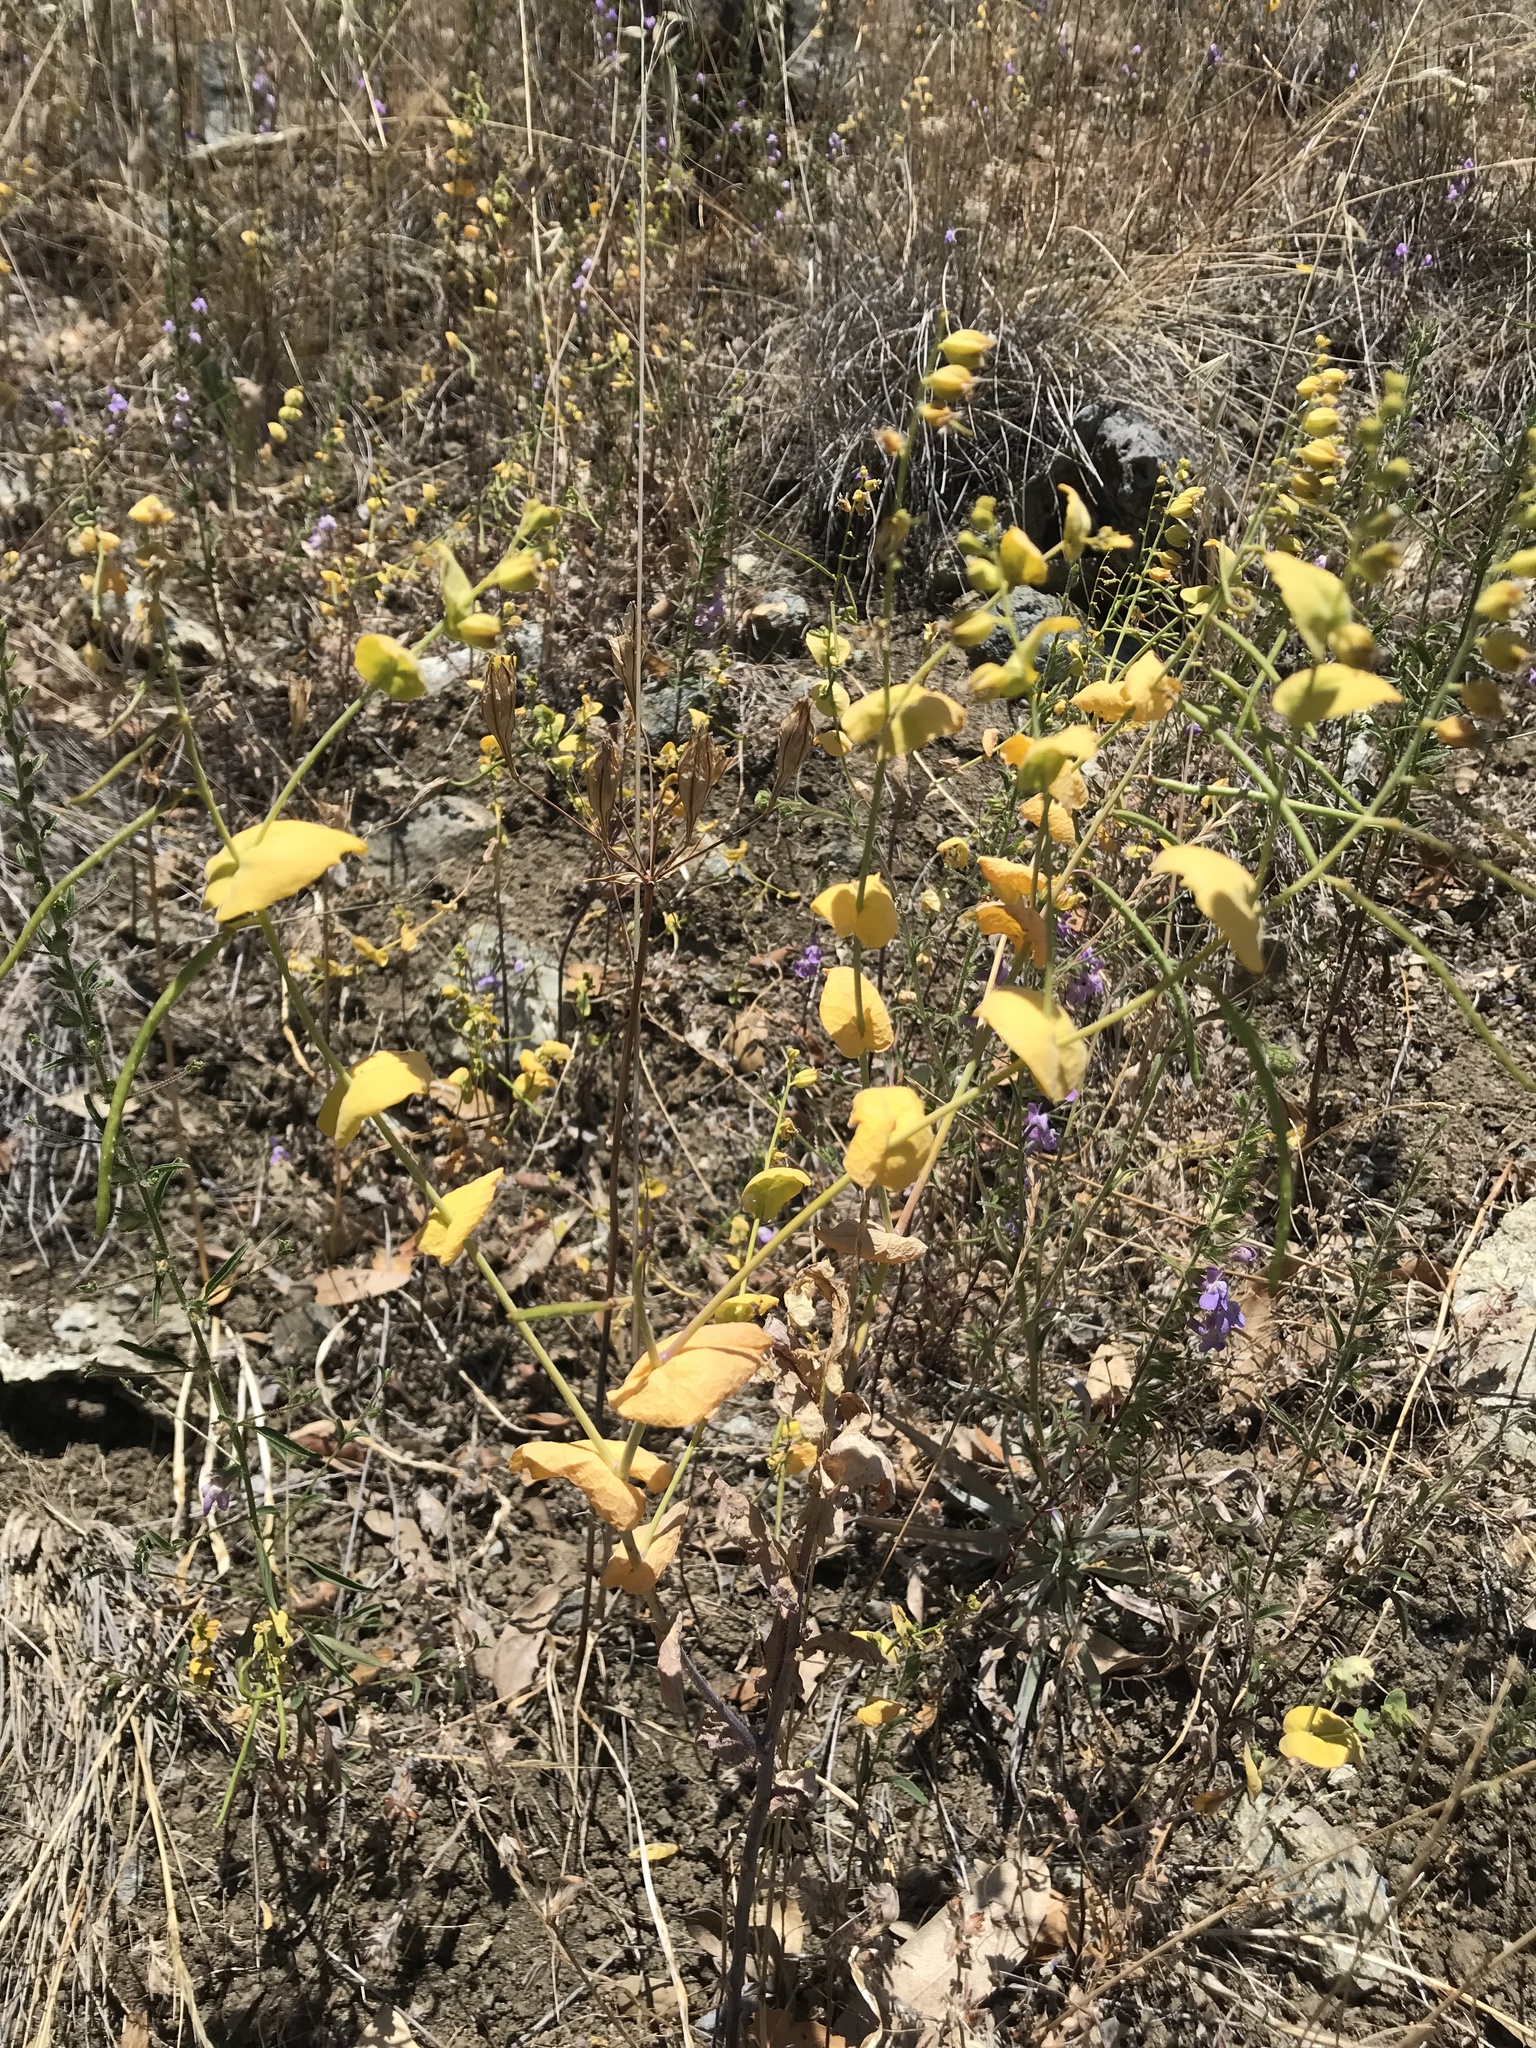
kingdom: Plantae
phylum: Tracheophyta
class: Magnoliopsida
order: Brassicales
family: Brassicaceae
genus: Streptanthus
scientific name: Streptanthus anomalus
